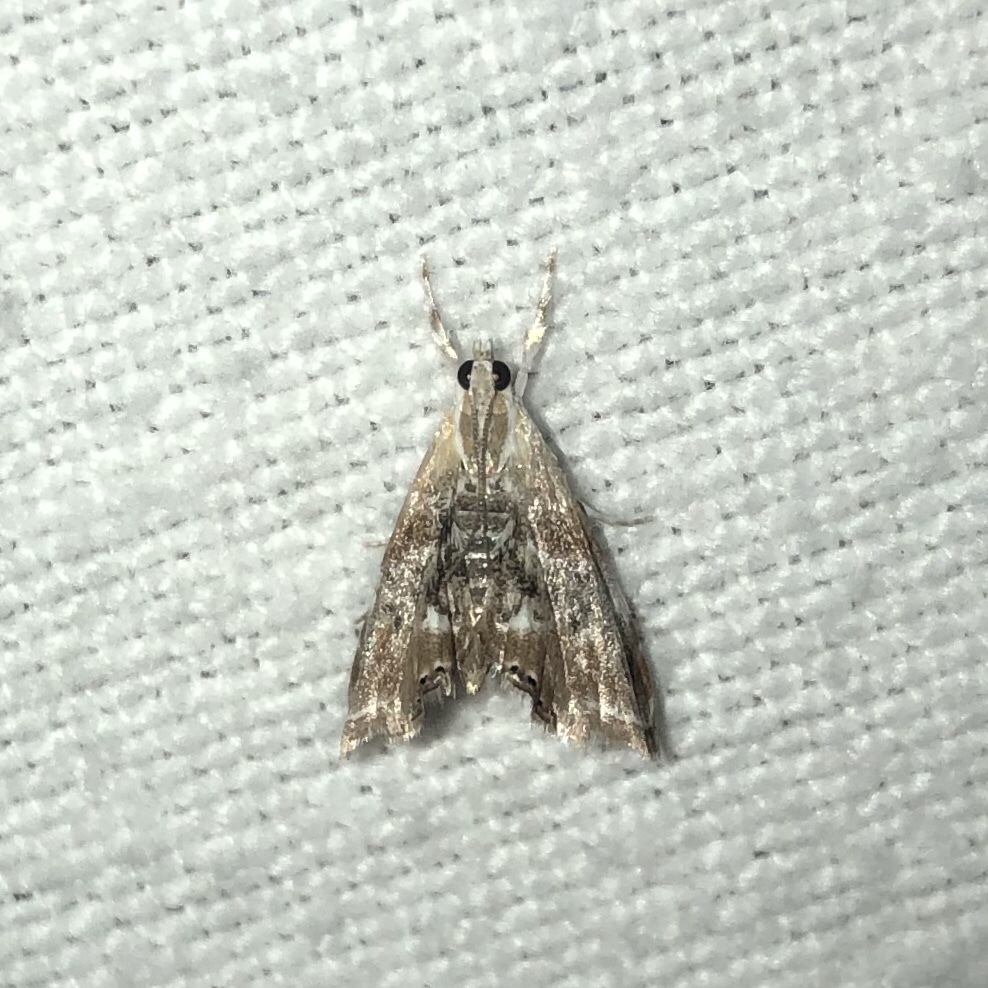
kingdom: Animalia
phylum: Arthropoda
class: Insecta
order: Lepidoptera
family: Crambidae
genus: Dicymolomia
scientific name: Dicymolomia julianalis
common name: Julia's dicymolomia moth
